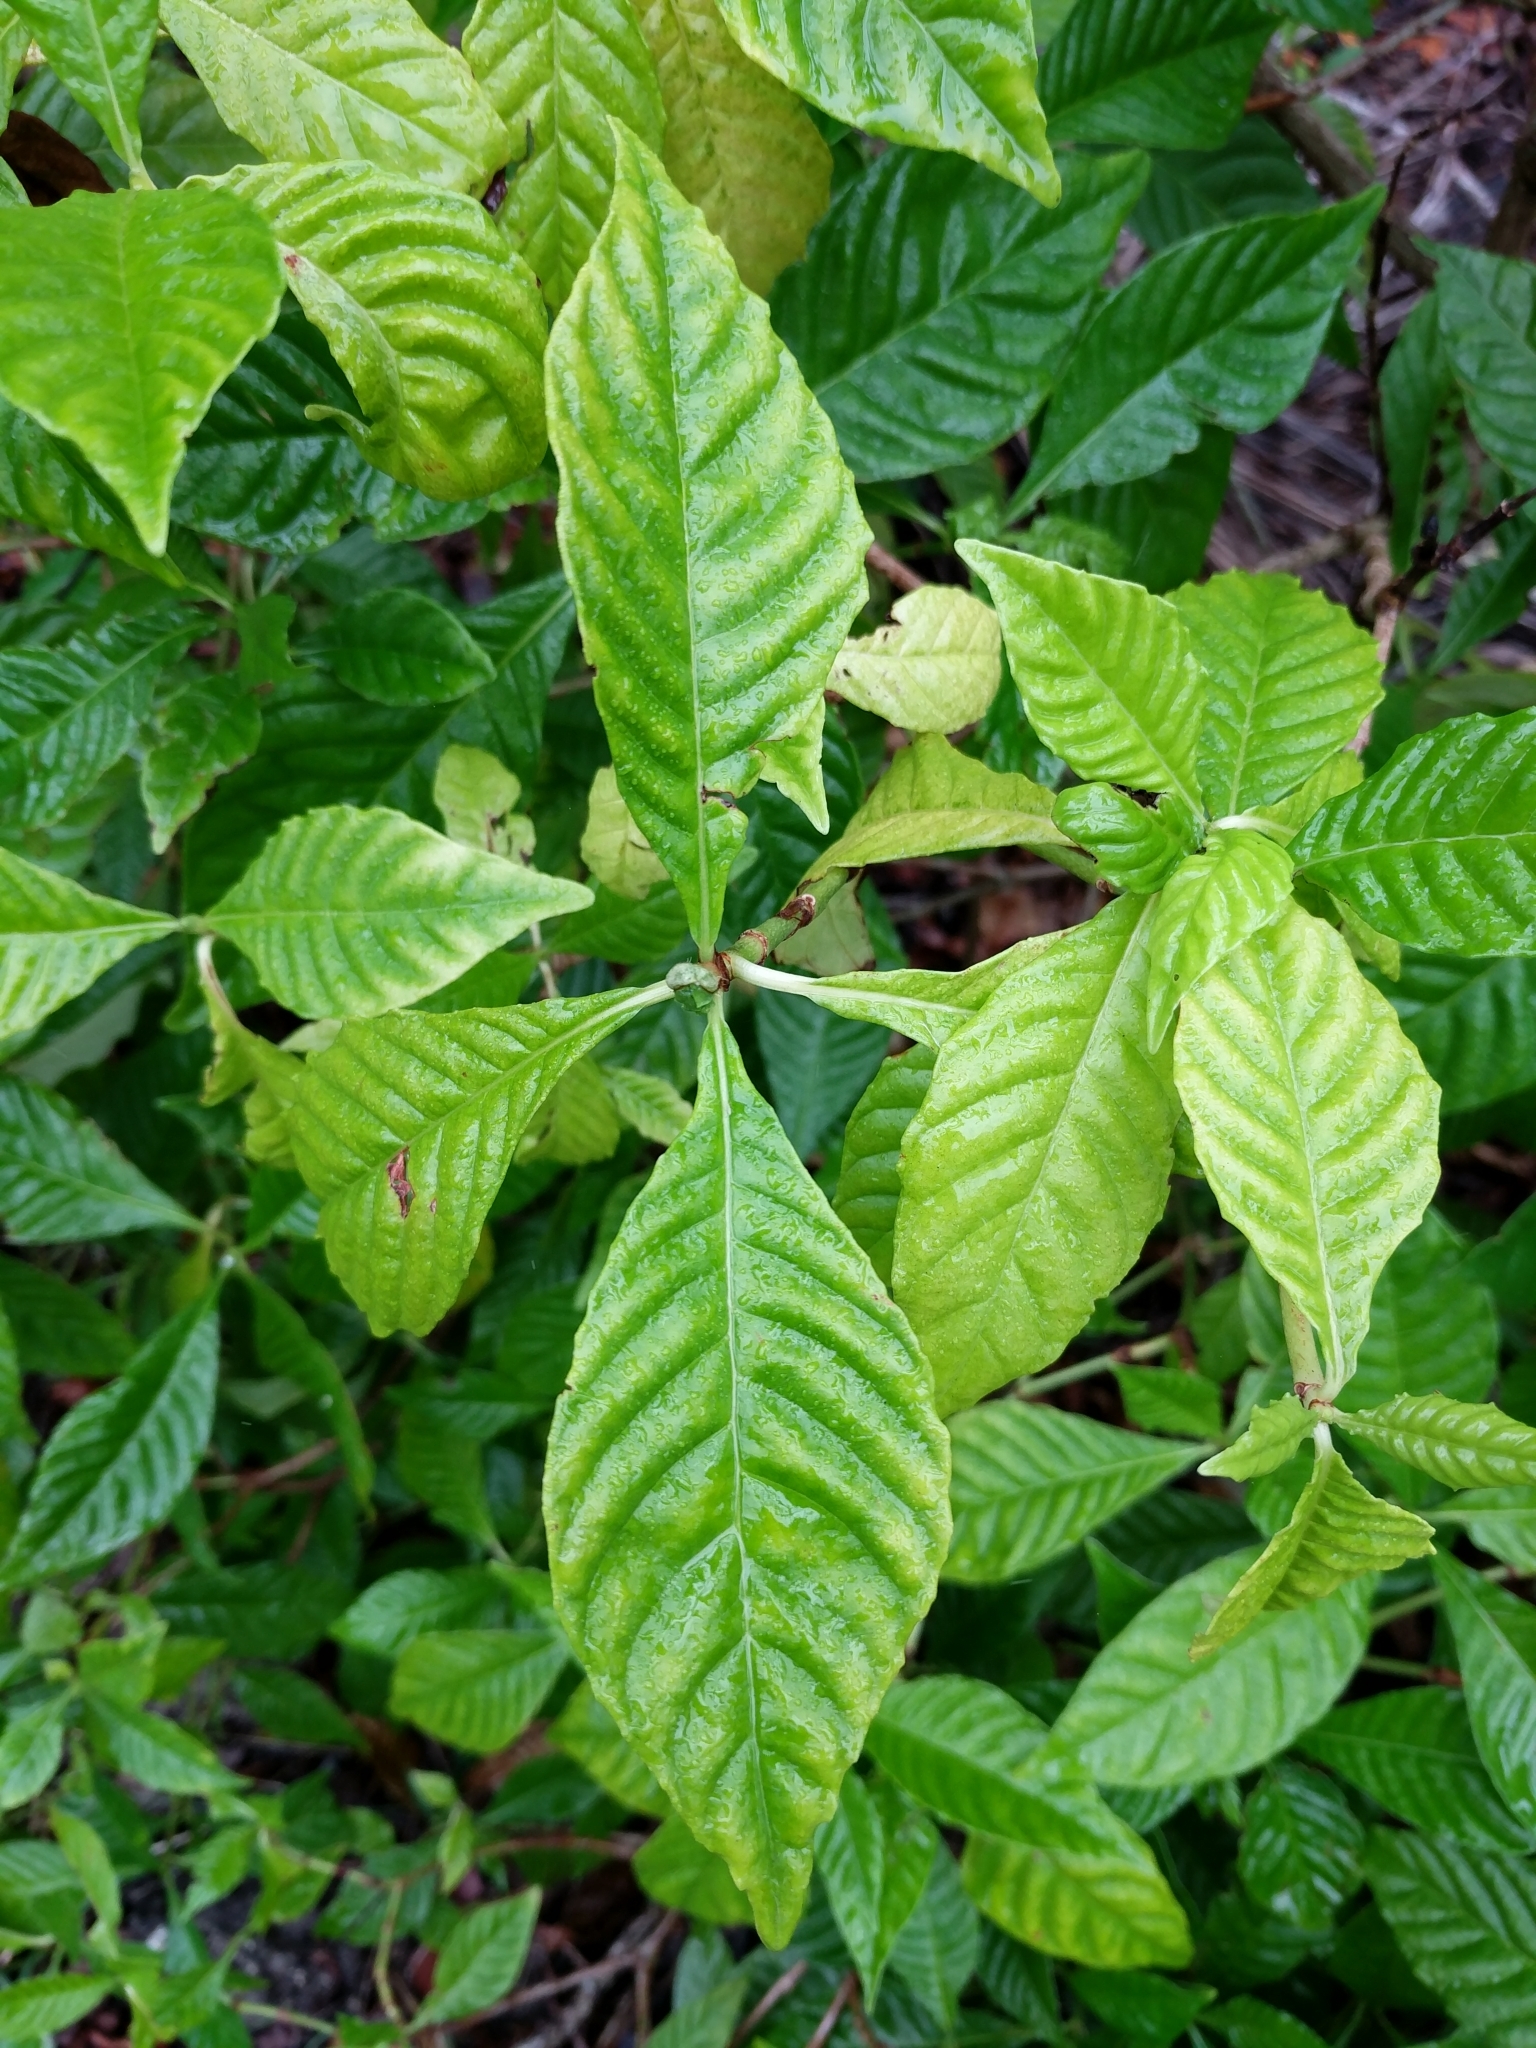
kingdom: Plantae
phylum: Tracheophyta
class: Magnoliopsida
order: Gentianales
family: Rubiaceae
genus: Psychotria
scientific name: Psychotria nervosa
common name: Bastard cankerberry
